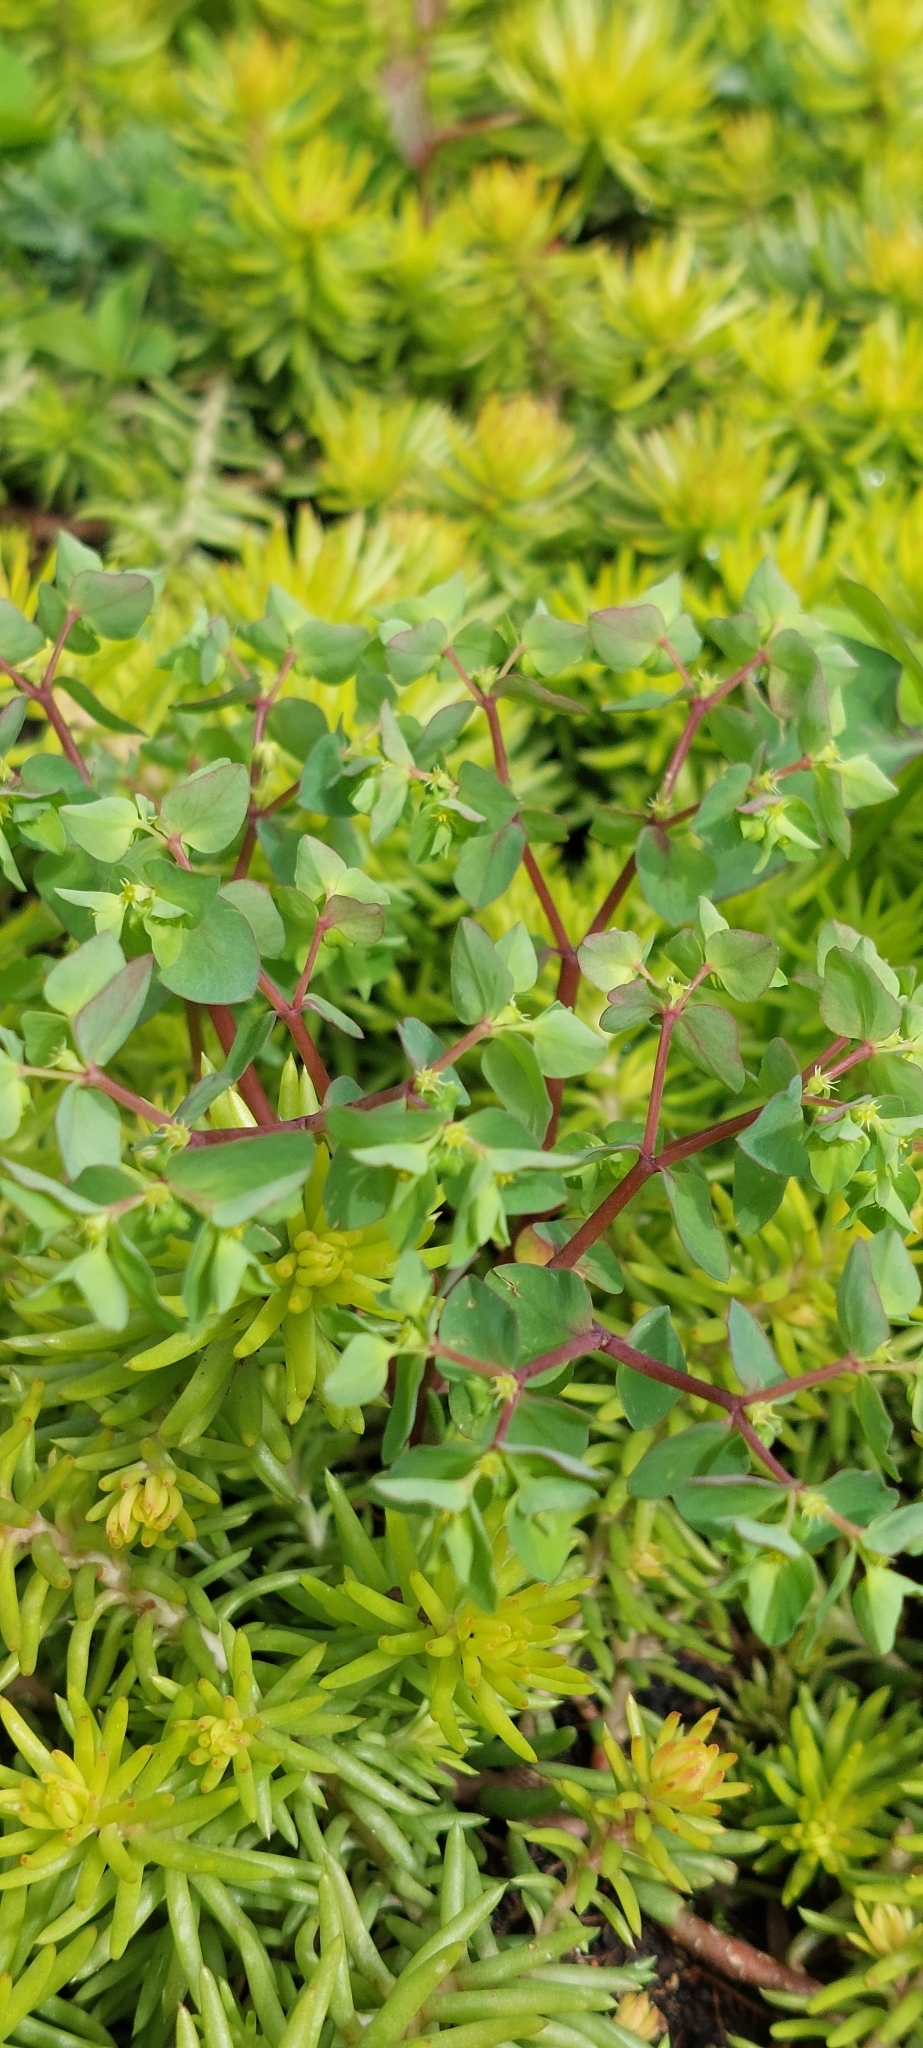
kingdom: Plantae
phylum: Tracheophyta
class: Magnoliopsida
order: Malpighiales
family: Euphorbiaceae
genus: Euphorbia
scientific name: Euphorbia peplus
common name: Petty spurge
